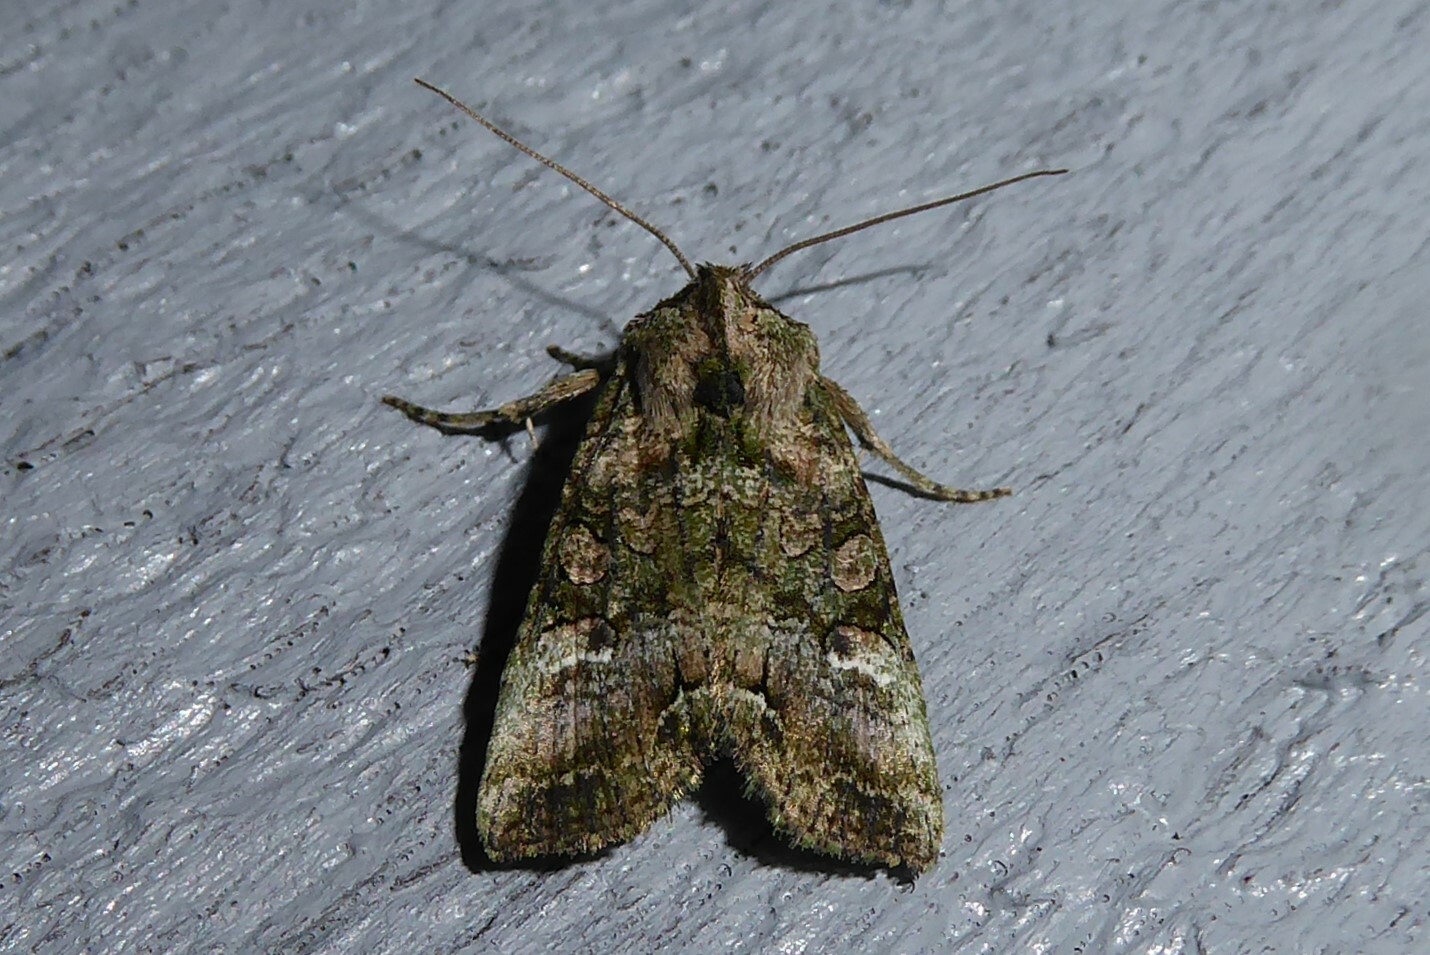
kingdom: Animalia
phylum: Arthropoda
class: Insecta
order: Lepidoptera
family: Noctuidae
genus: Meterana
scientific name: Meterana levis
